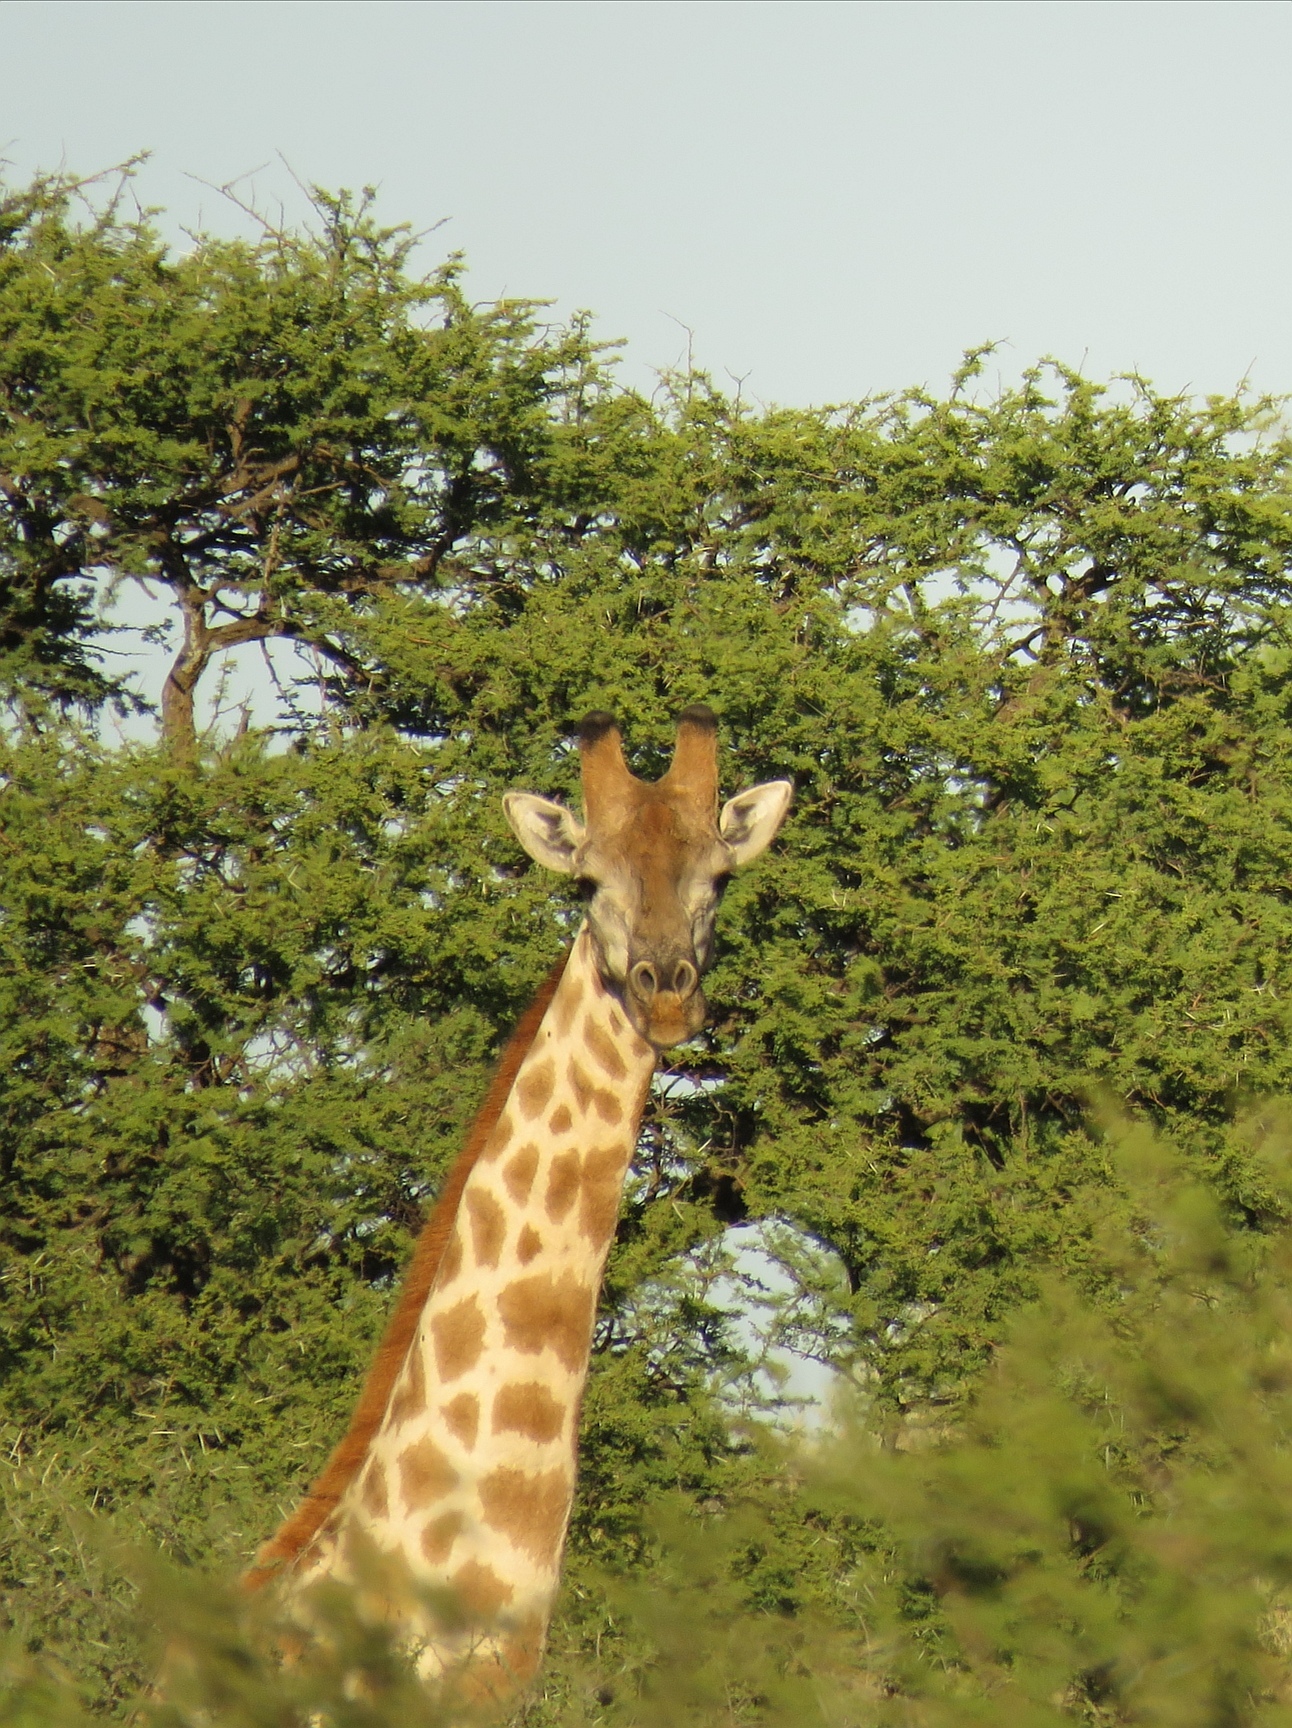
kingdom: Animalia
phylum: Chordata
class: Mammalia
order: Artiodactyla
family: Giraffidae
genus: Giraffa
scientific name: Giraffa giraffa
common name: Southern giraffe
